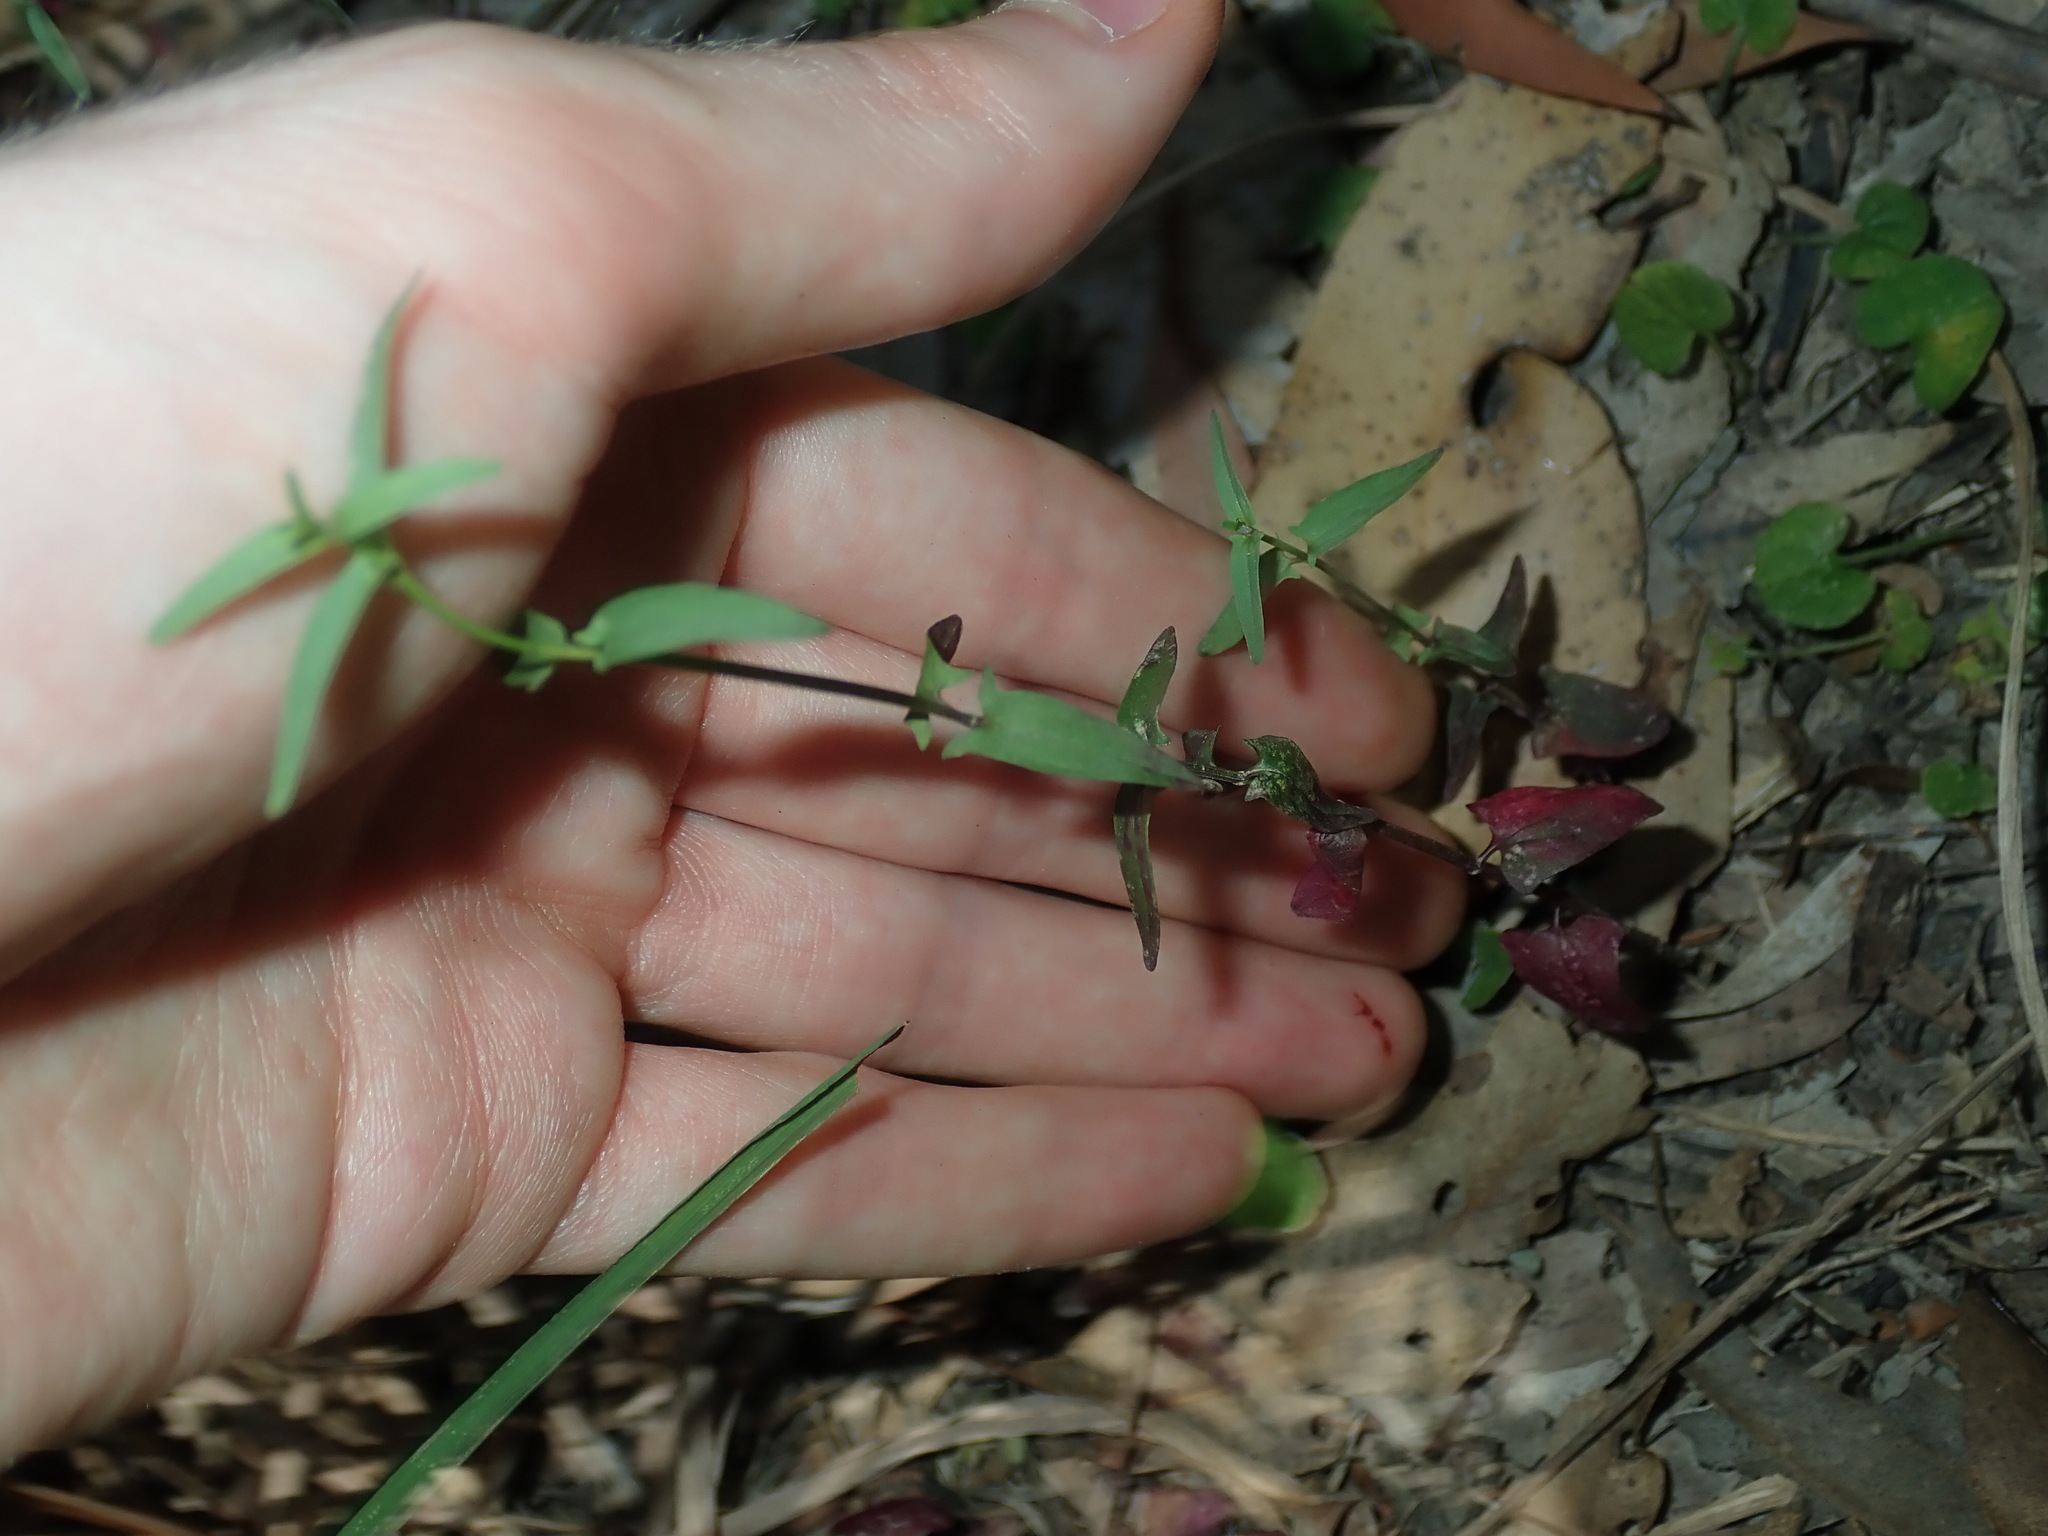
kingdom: Plantae
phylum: Tracheophyta
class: Magnoliopsida
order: Lamiales
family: Lamiaceae
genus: Scutellaria
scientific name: Scutellaria racemosa
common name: South american skullcap
